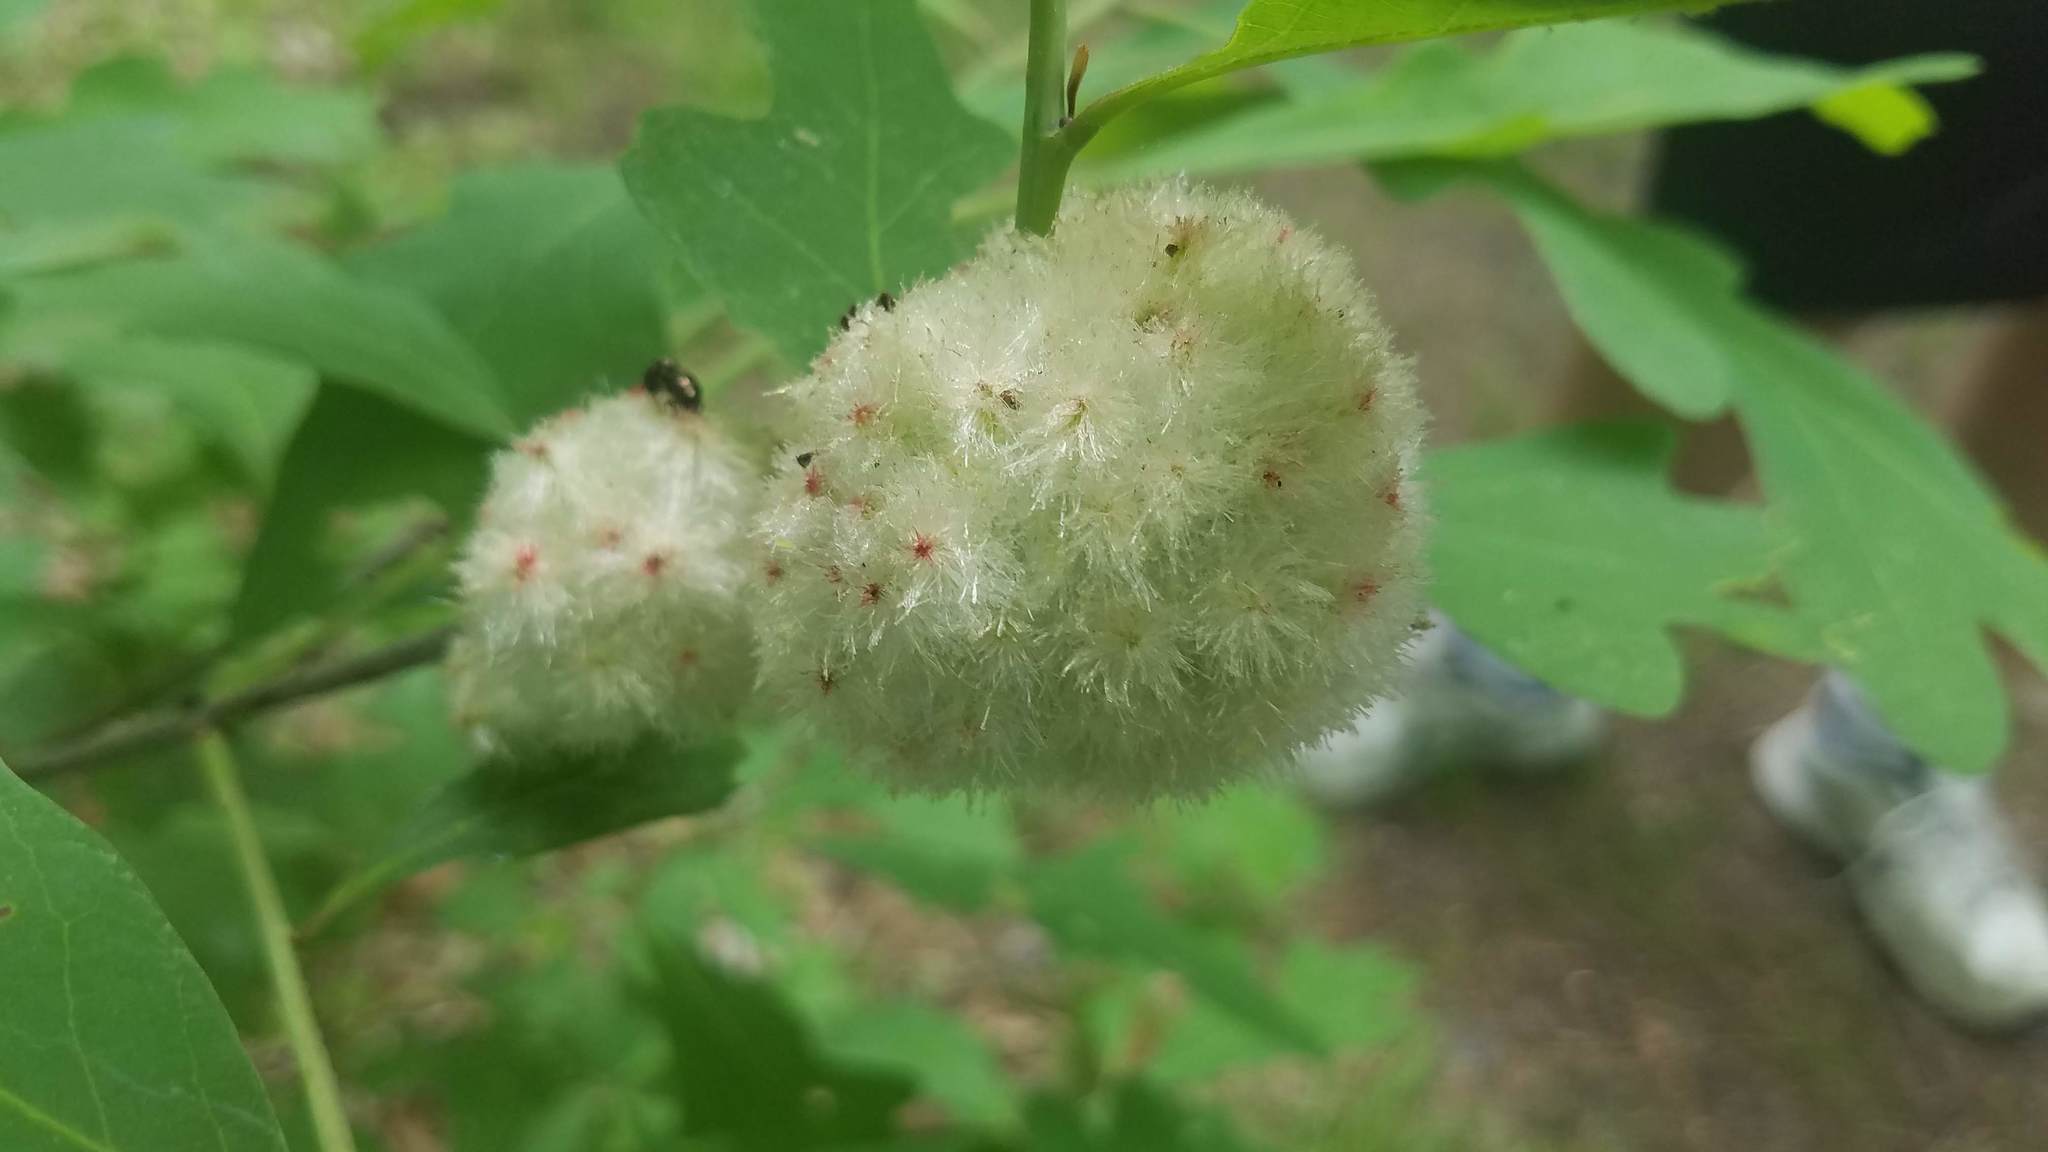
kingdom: Animalia
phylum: Arthropoda
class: Insecta
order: Hymenoptera
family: Cynipidae
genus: Callirhytis
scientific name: Callirhytis
